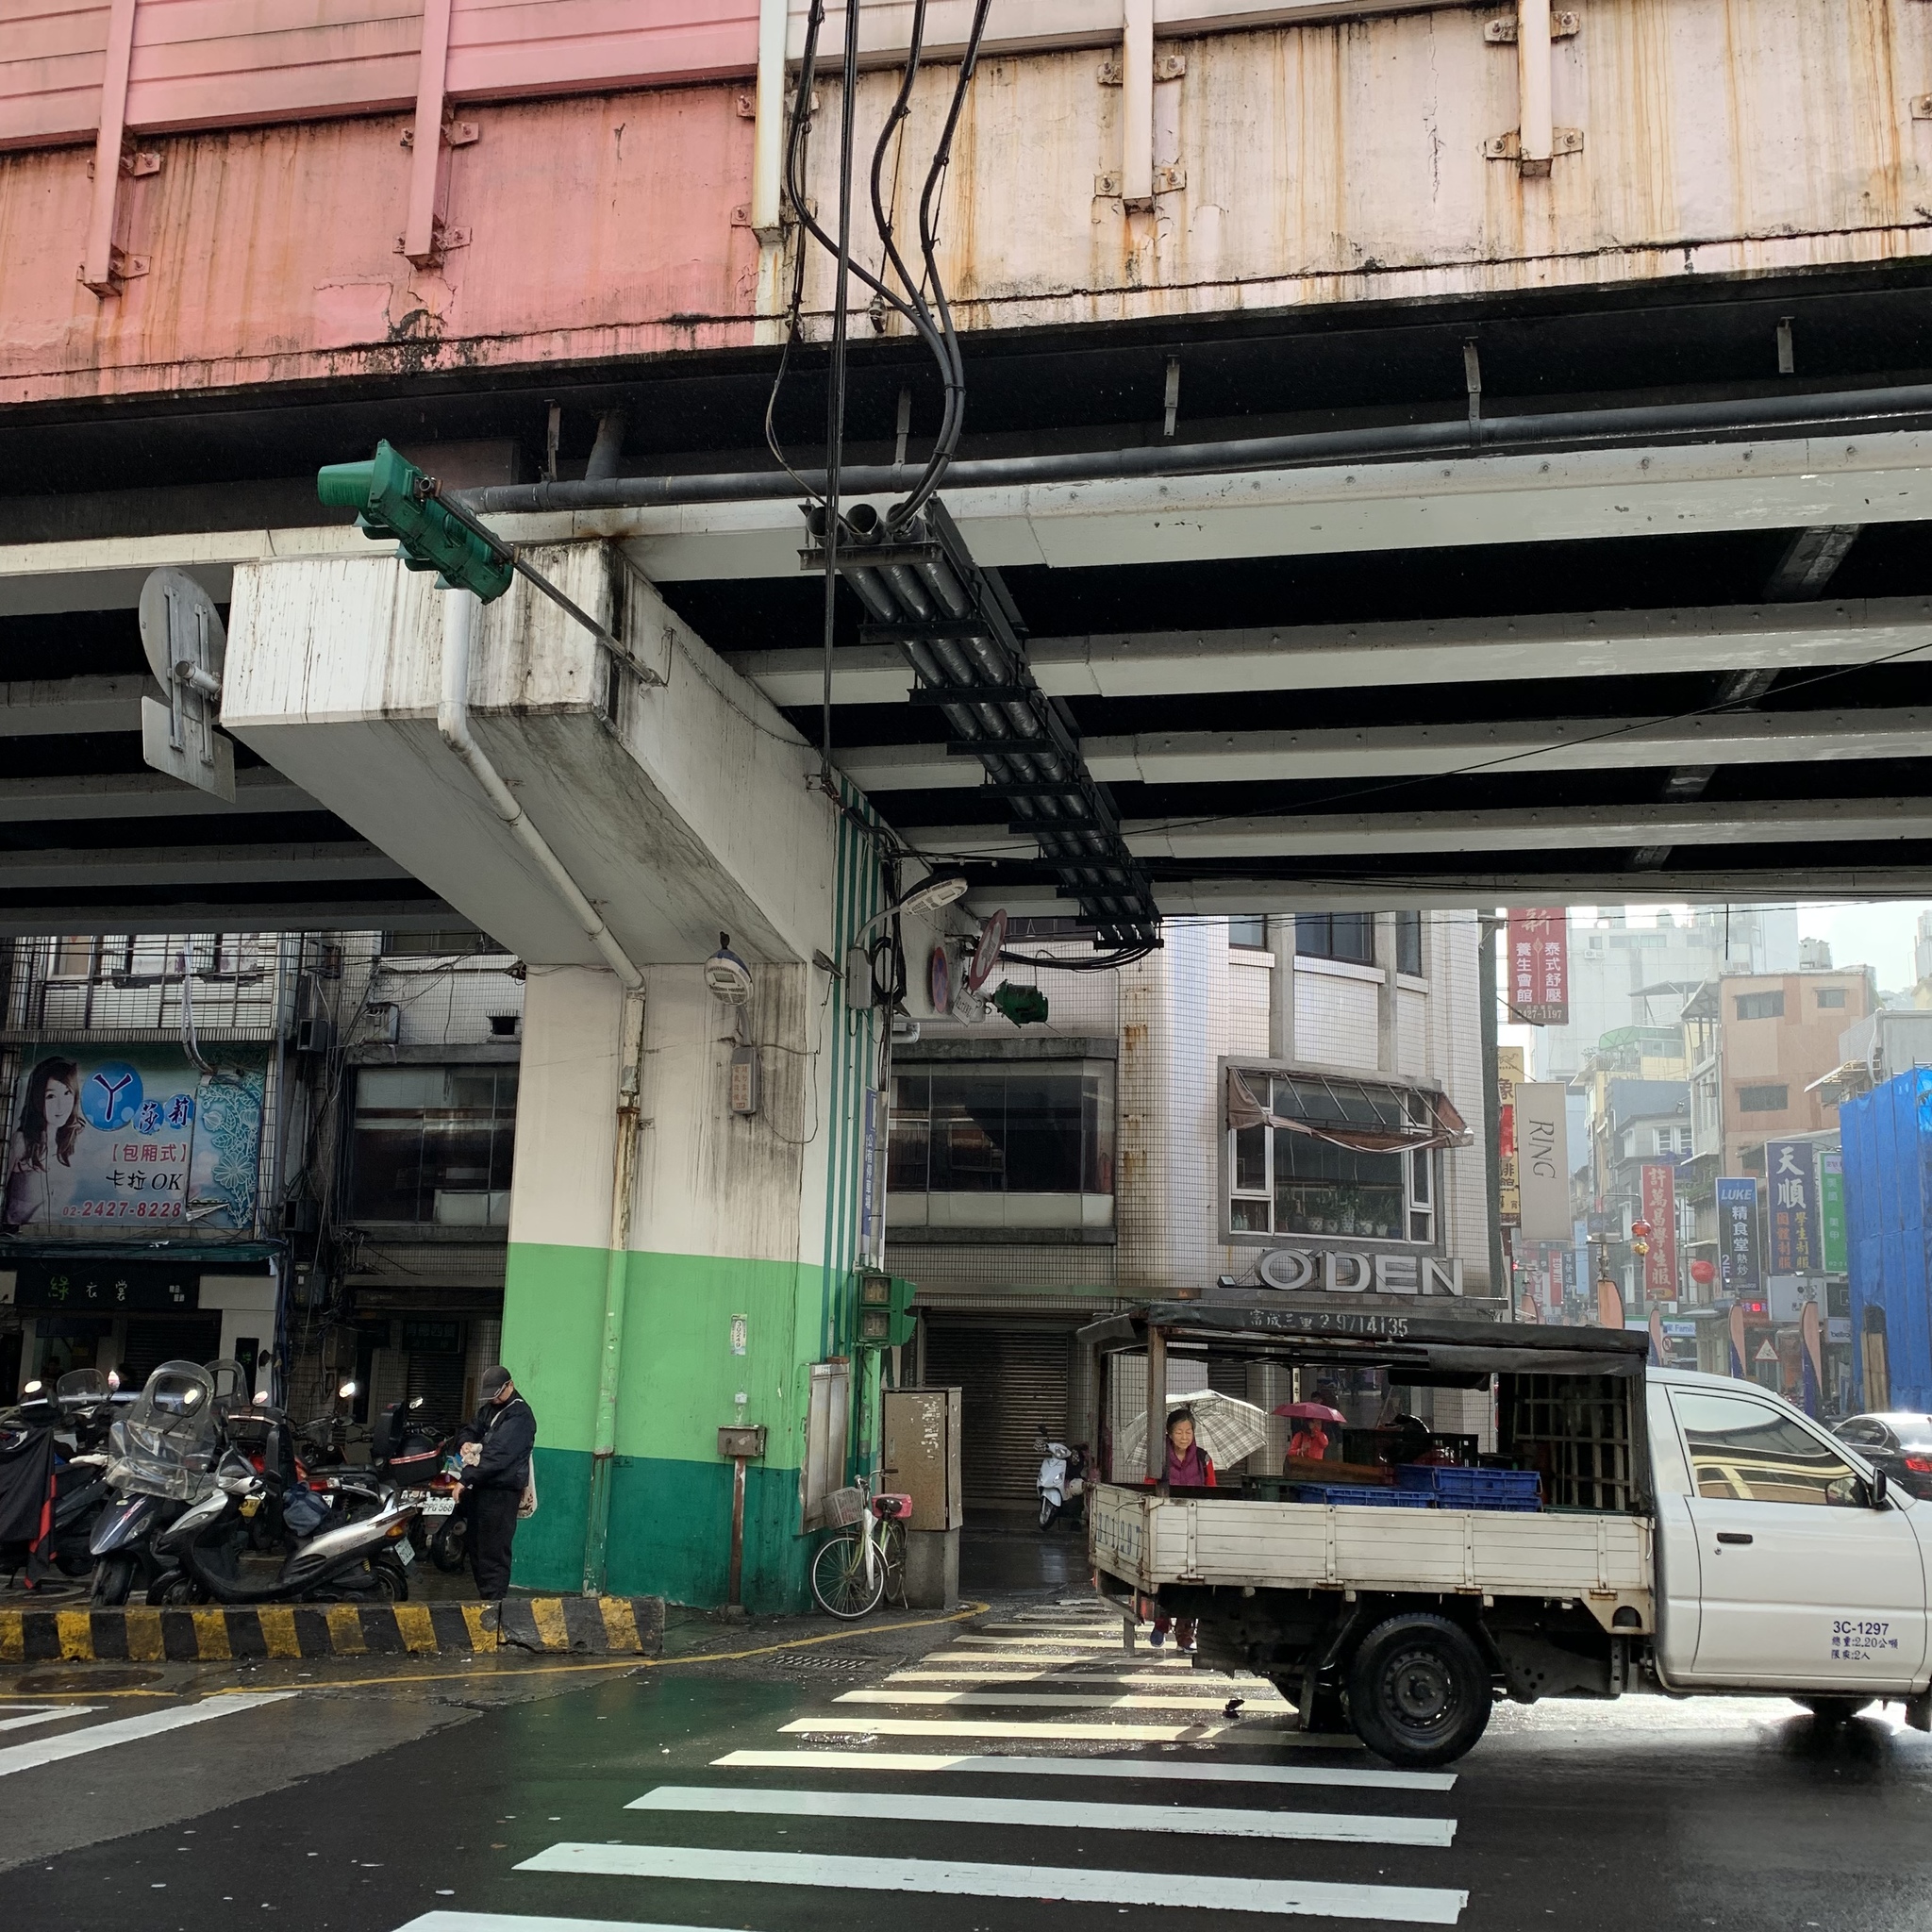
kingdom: Animalia
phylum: Chordata
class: Aves
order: Passeriformes
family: Dicruridae
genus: Dicrurus
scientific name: Dicrurus macrocercus
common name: Black drongo
